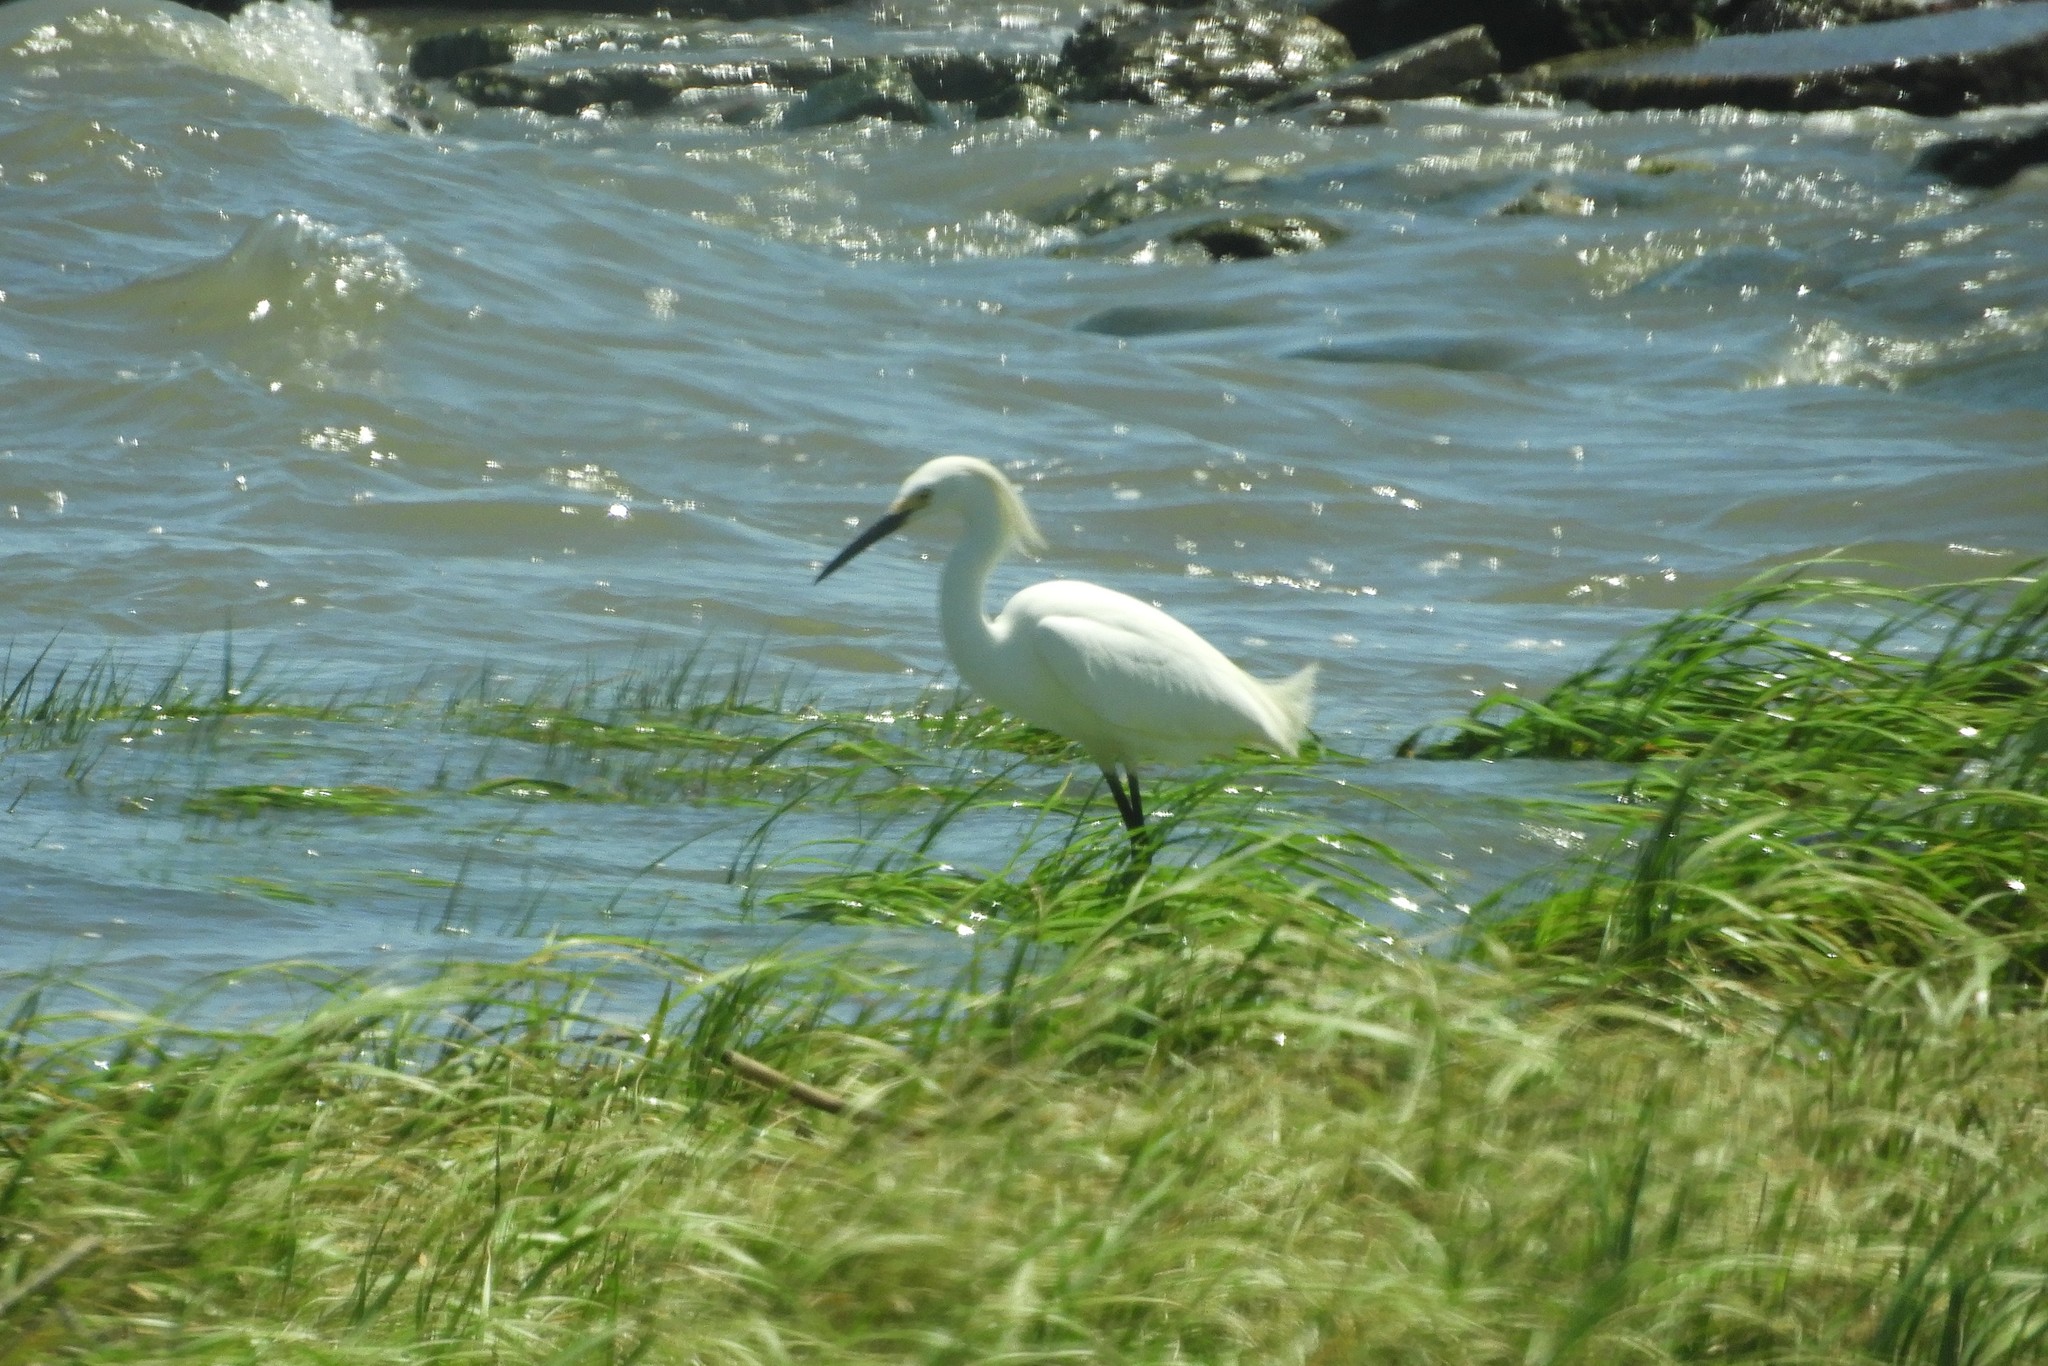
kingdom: Animalia
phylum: Chordata
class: Aves
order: Pelecaniformes
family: Ardeidae
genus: Egretta
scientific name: Egretta thula
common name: Snowy egret
